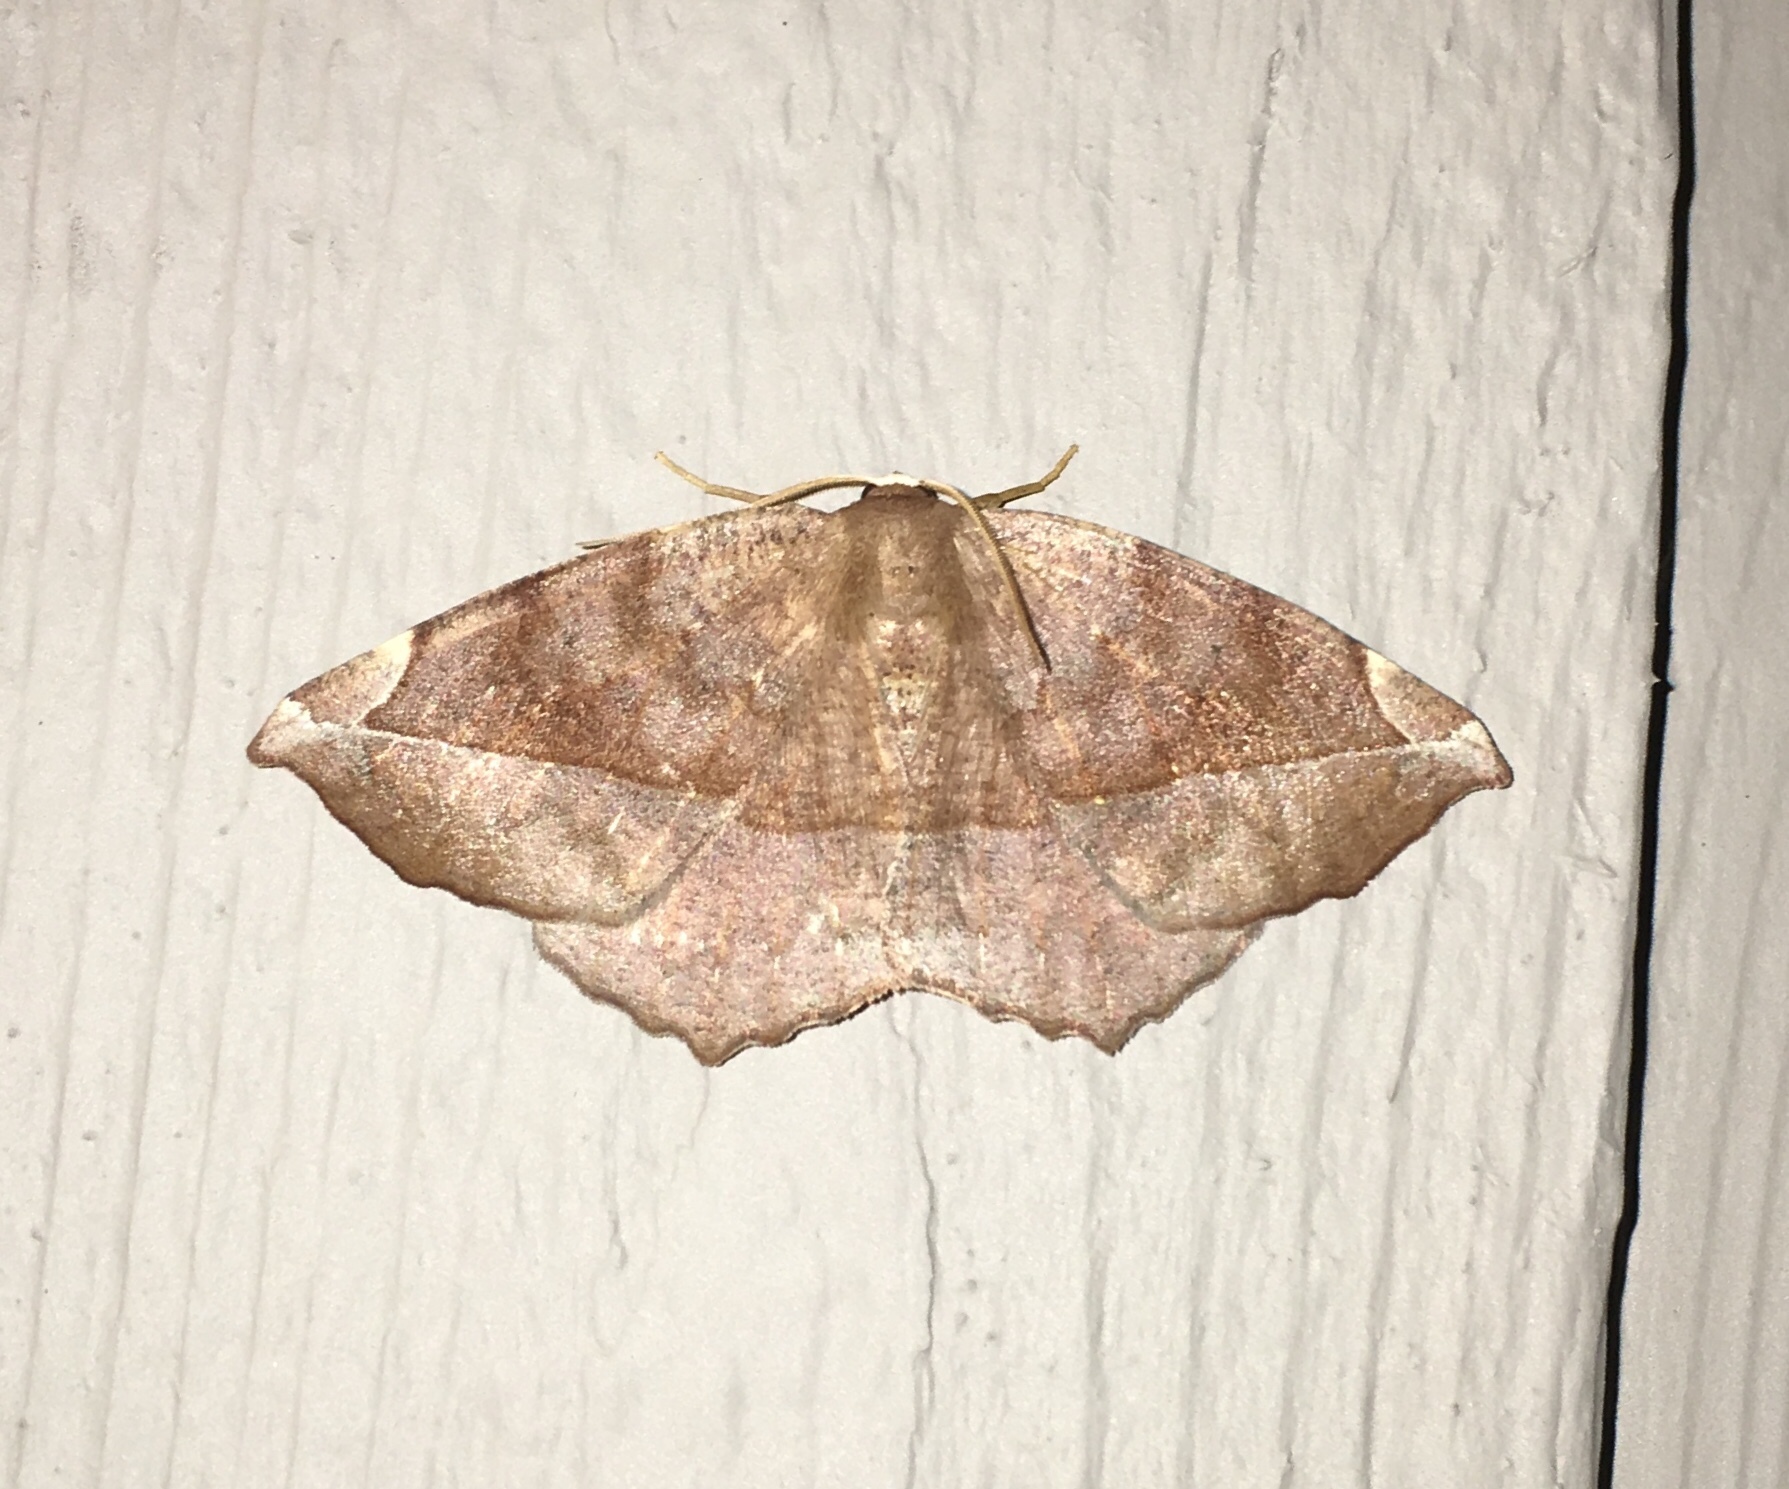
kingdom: Animalia
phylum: Arthropoda
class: Insecta
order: Lepidoptera
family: Geometridae
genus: Eutrapela
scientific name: Eutrapela clemataria
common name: Curved-toothed geometer
